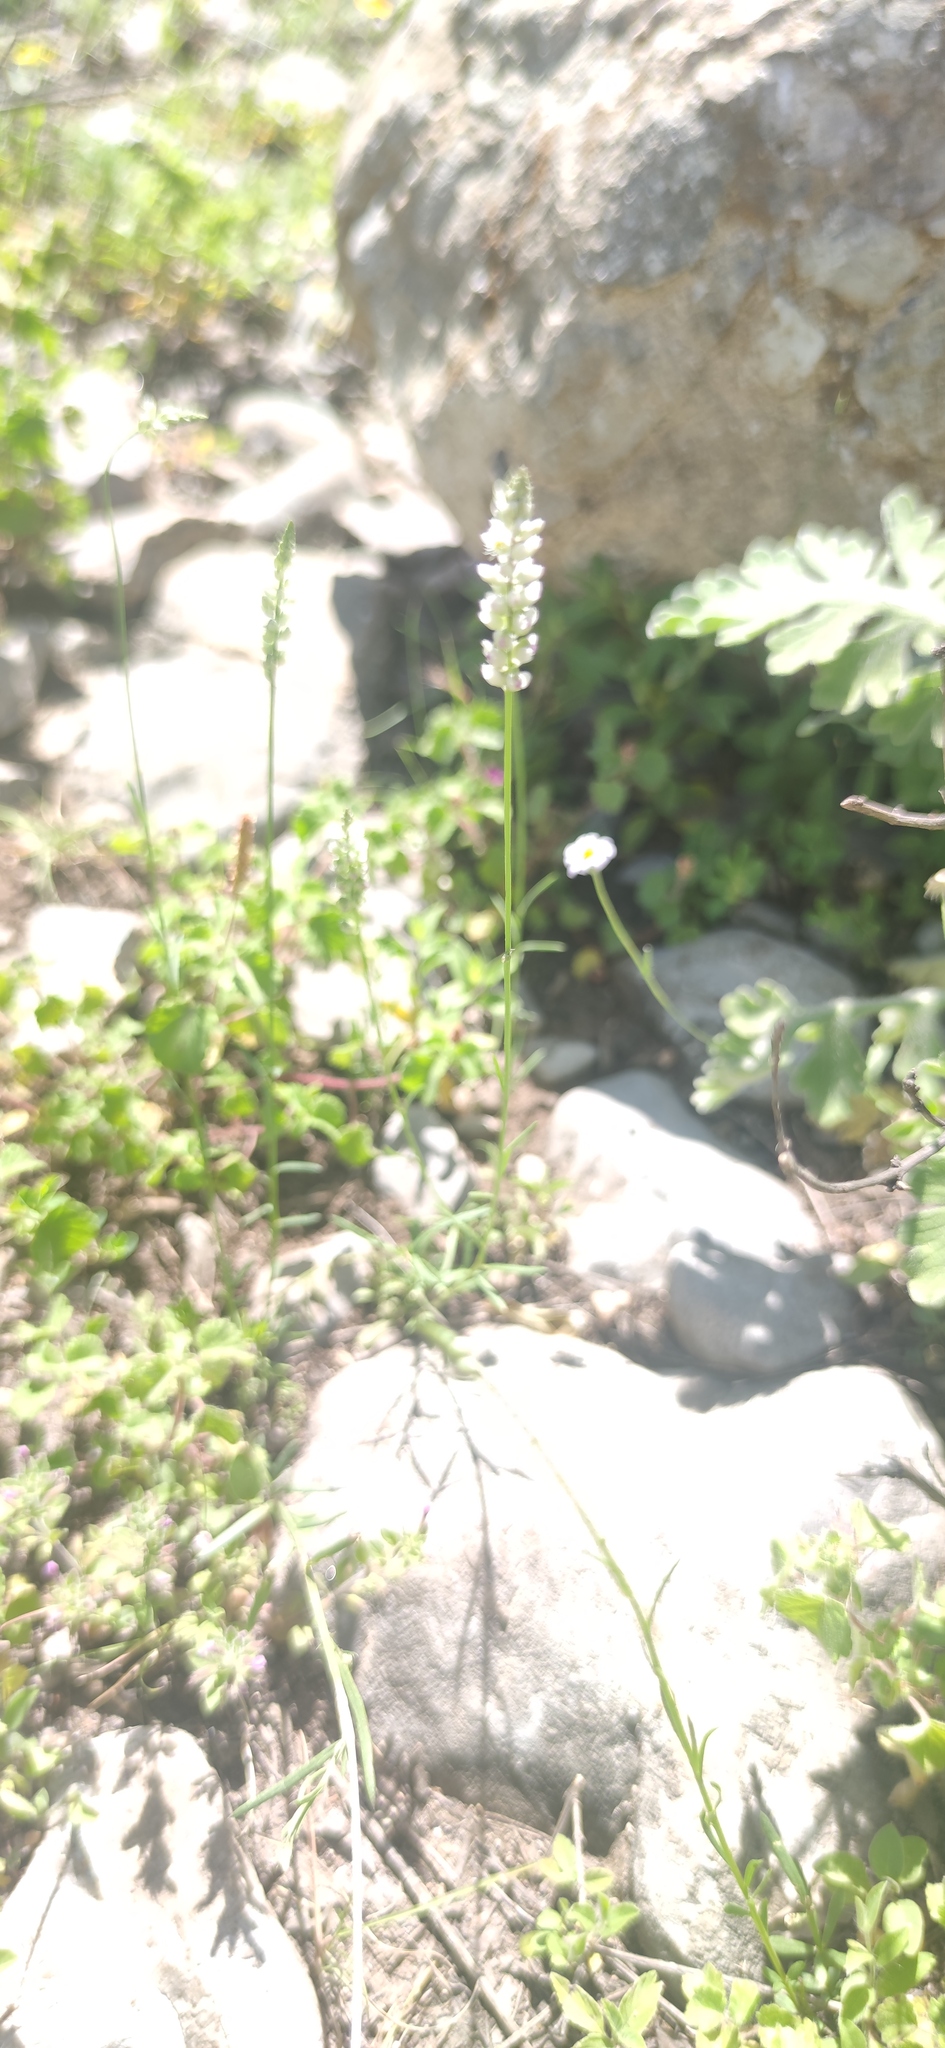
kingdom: Plantae
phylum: Tracheophyta
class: Magnoliopsida
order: Fabales
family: Polygalaceae
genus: Polygala
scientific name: Polygala alba
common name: White milkwort
